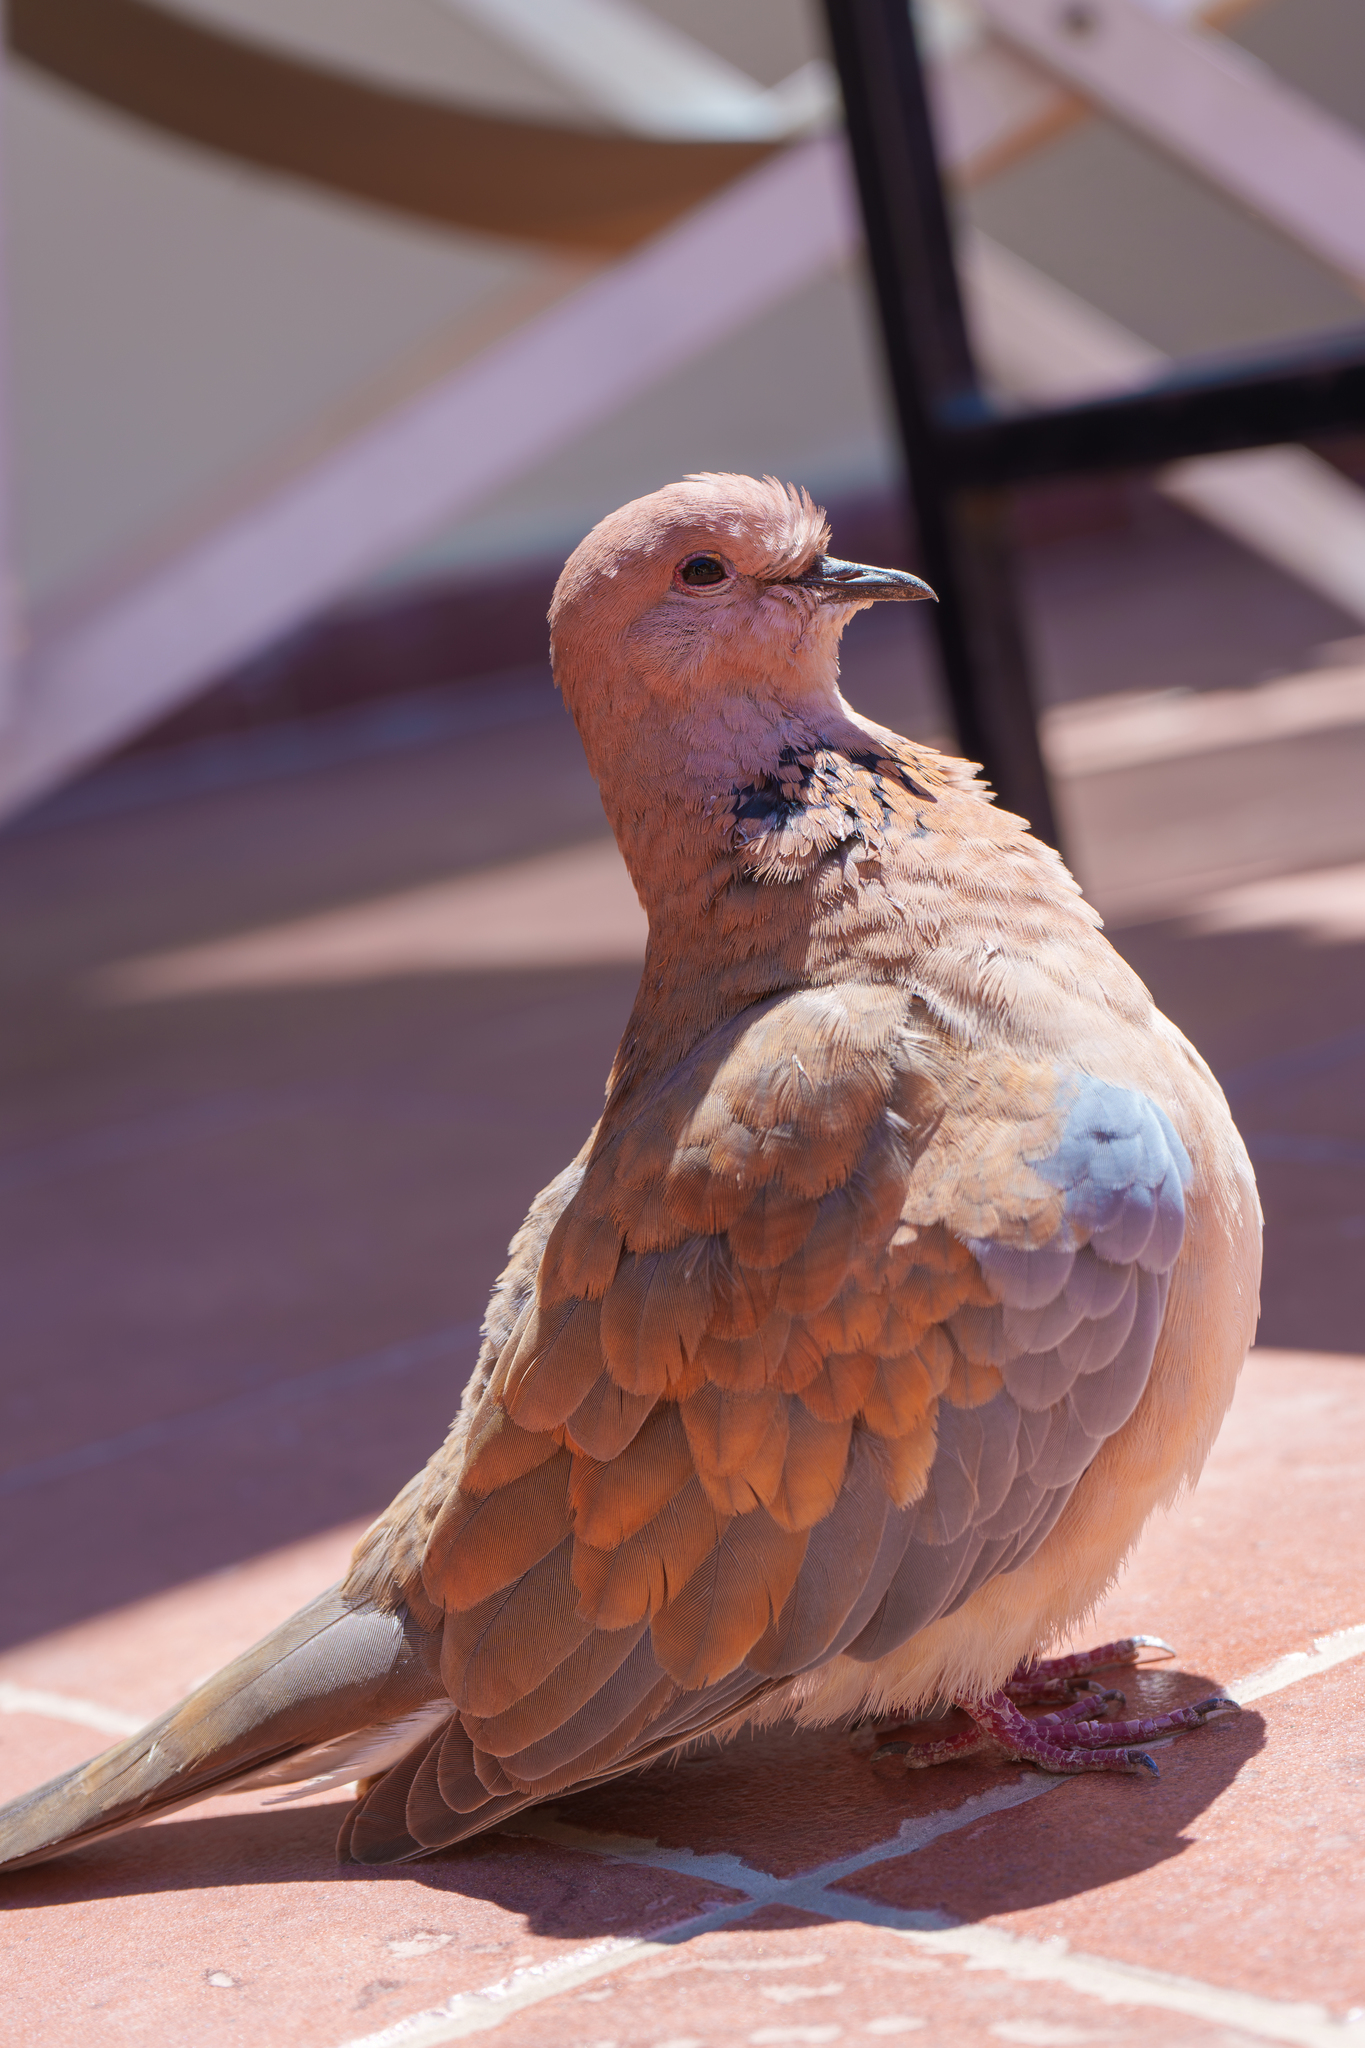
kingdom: Animalia
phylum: Chordata
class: Aves
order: Columbiformes
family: Columbidae
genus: Spilopelia
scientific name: Spilopelia senegalensis
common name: Laughing dove
